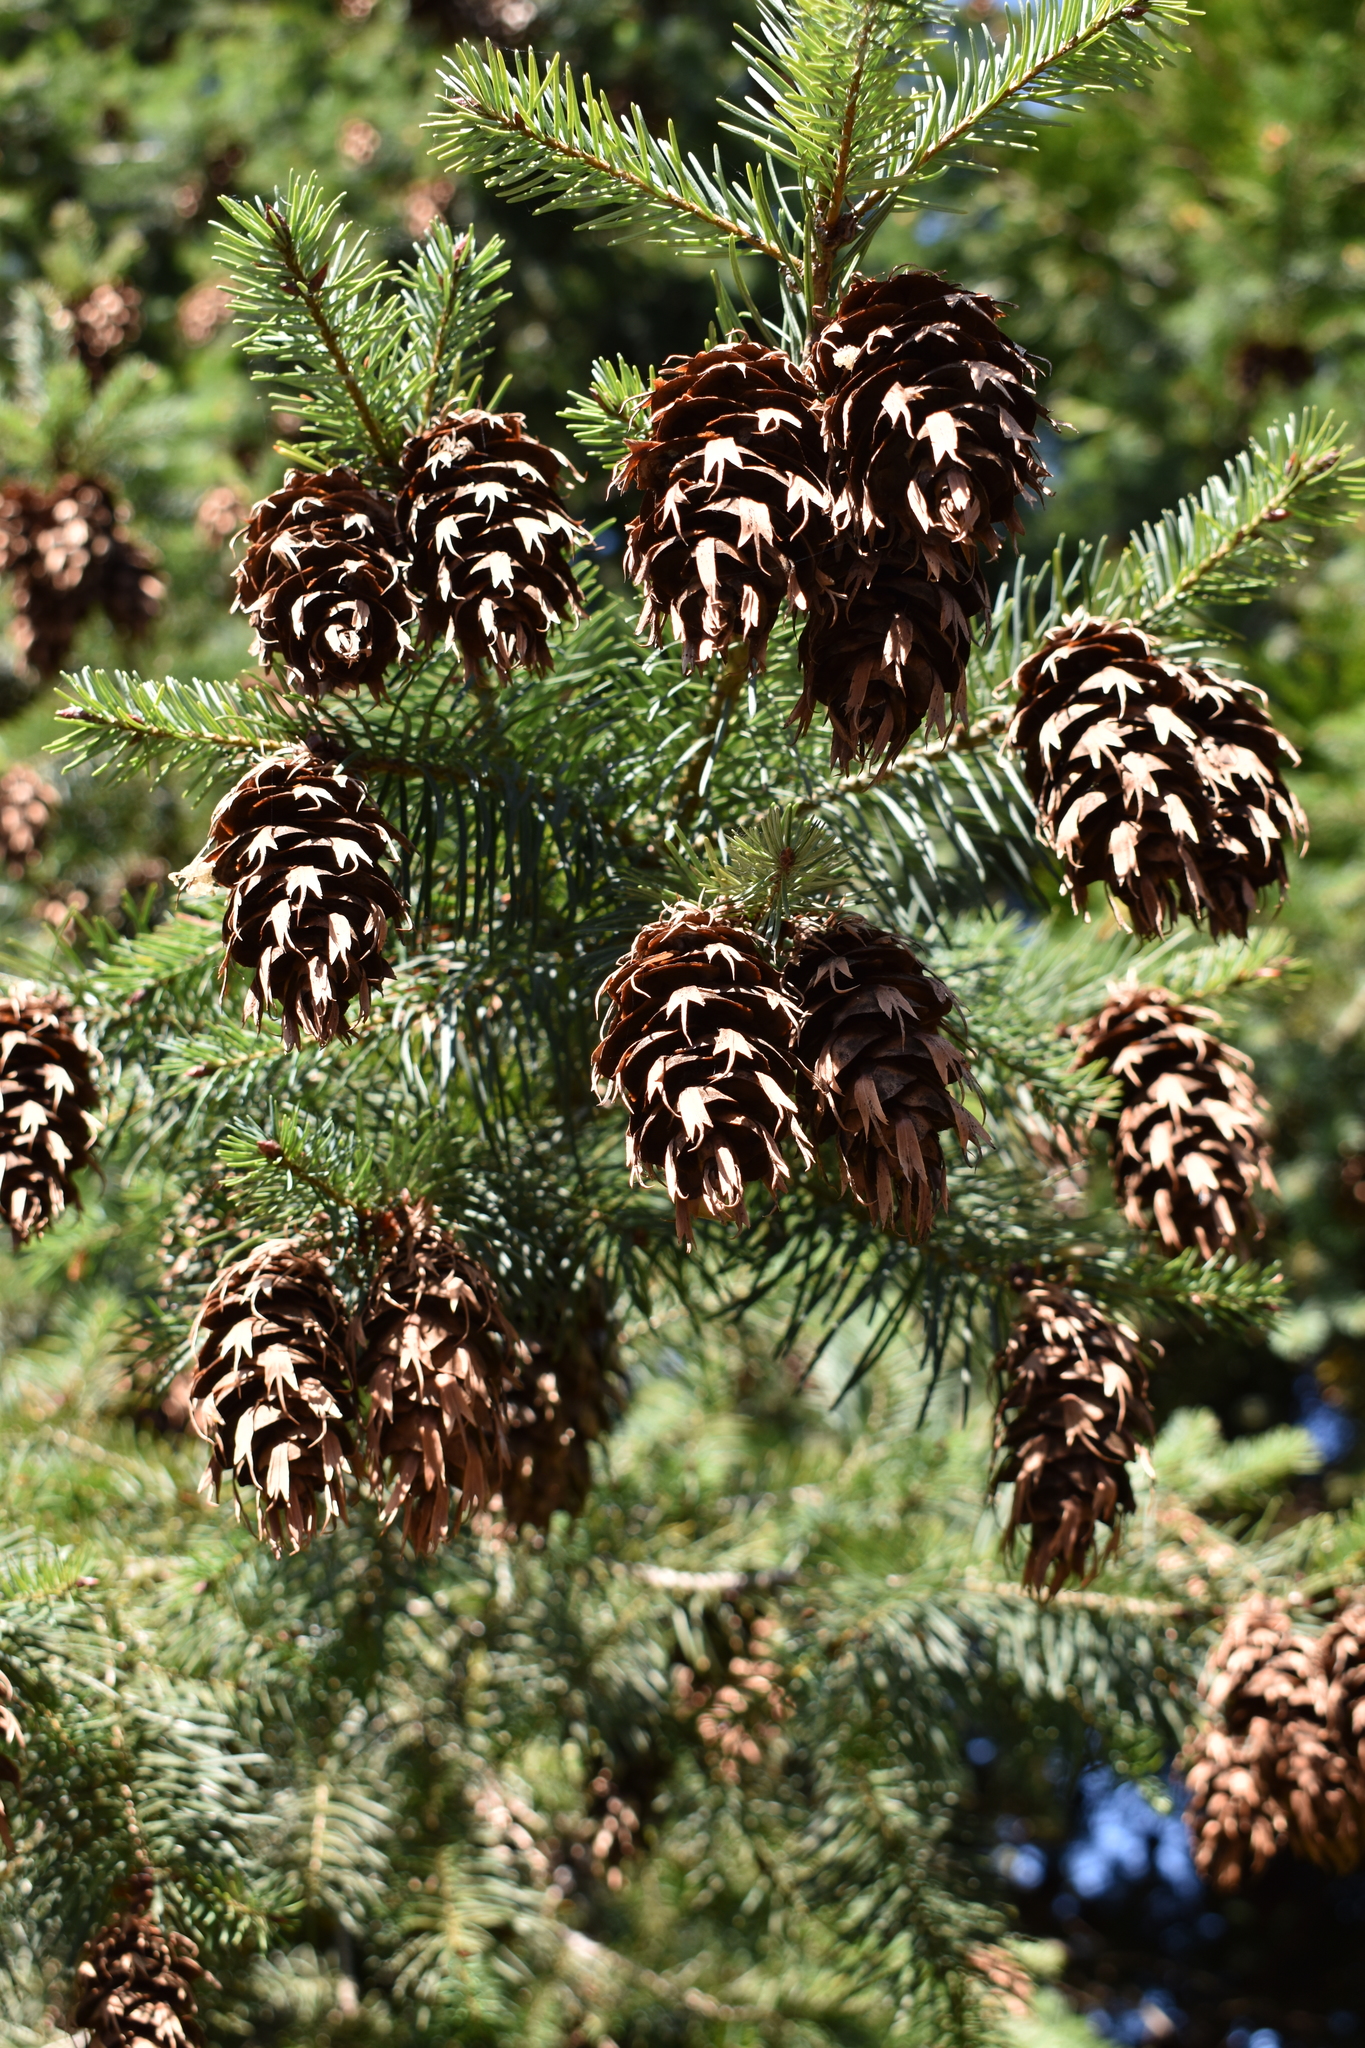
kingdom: Plantae
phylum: Tracheophyta
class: Pinopsida
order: Pinales
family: Pinaceae
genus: Pseudotsuga
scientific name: Pseudotsuga menziesii
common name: Douglas fir
